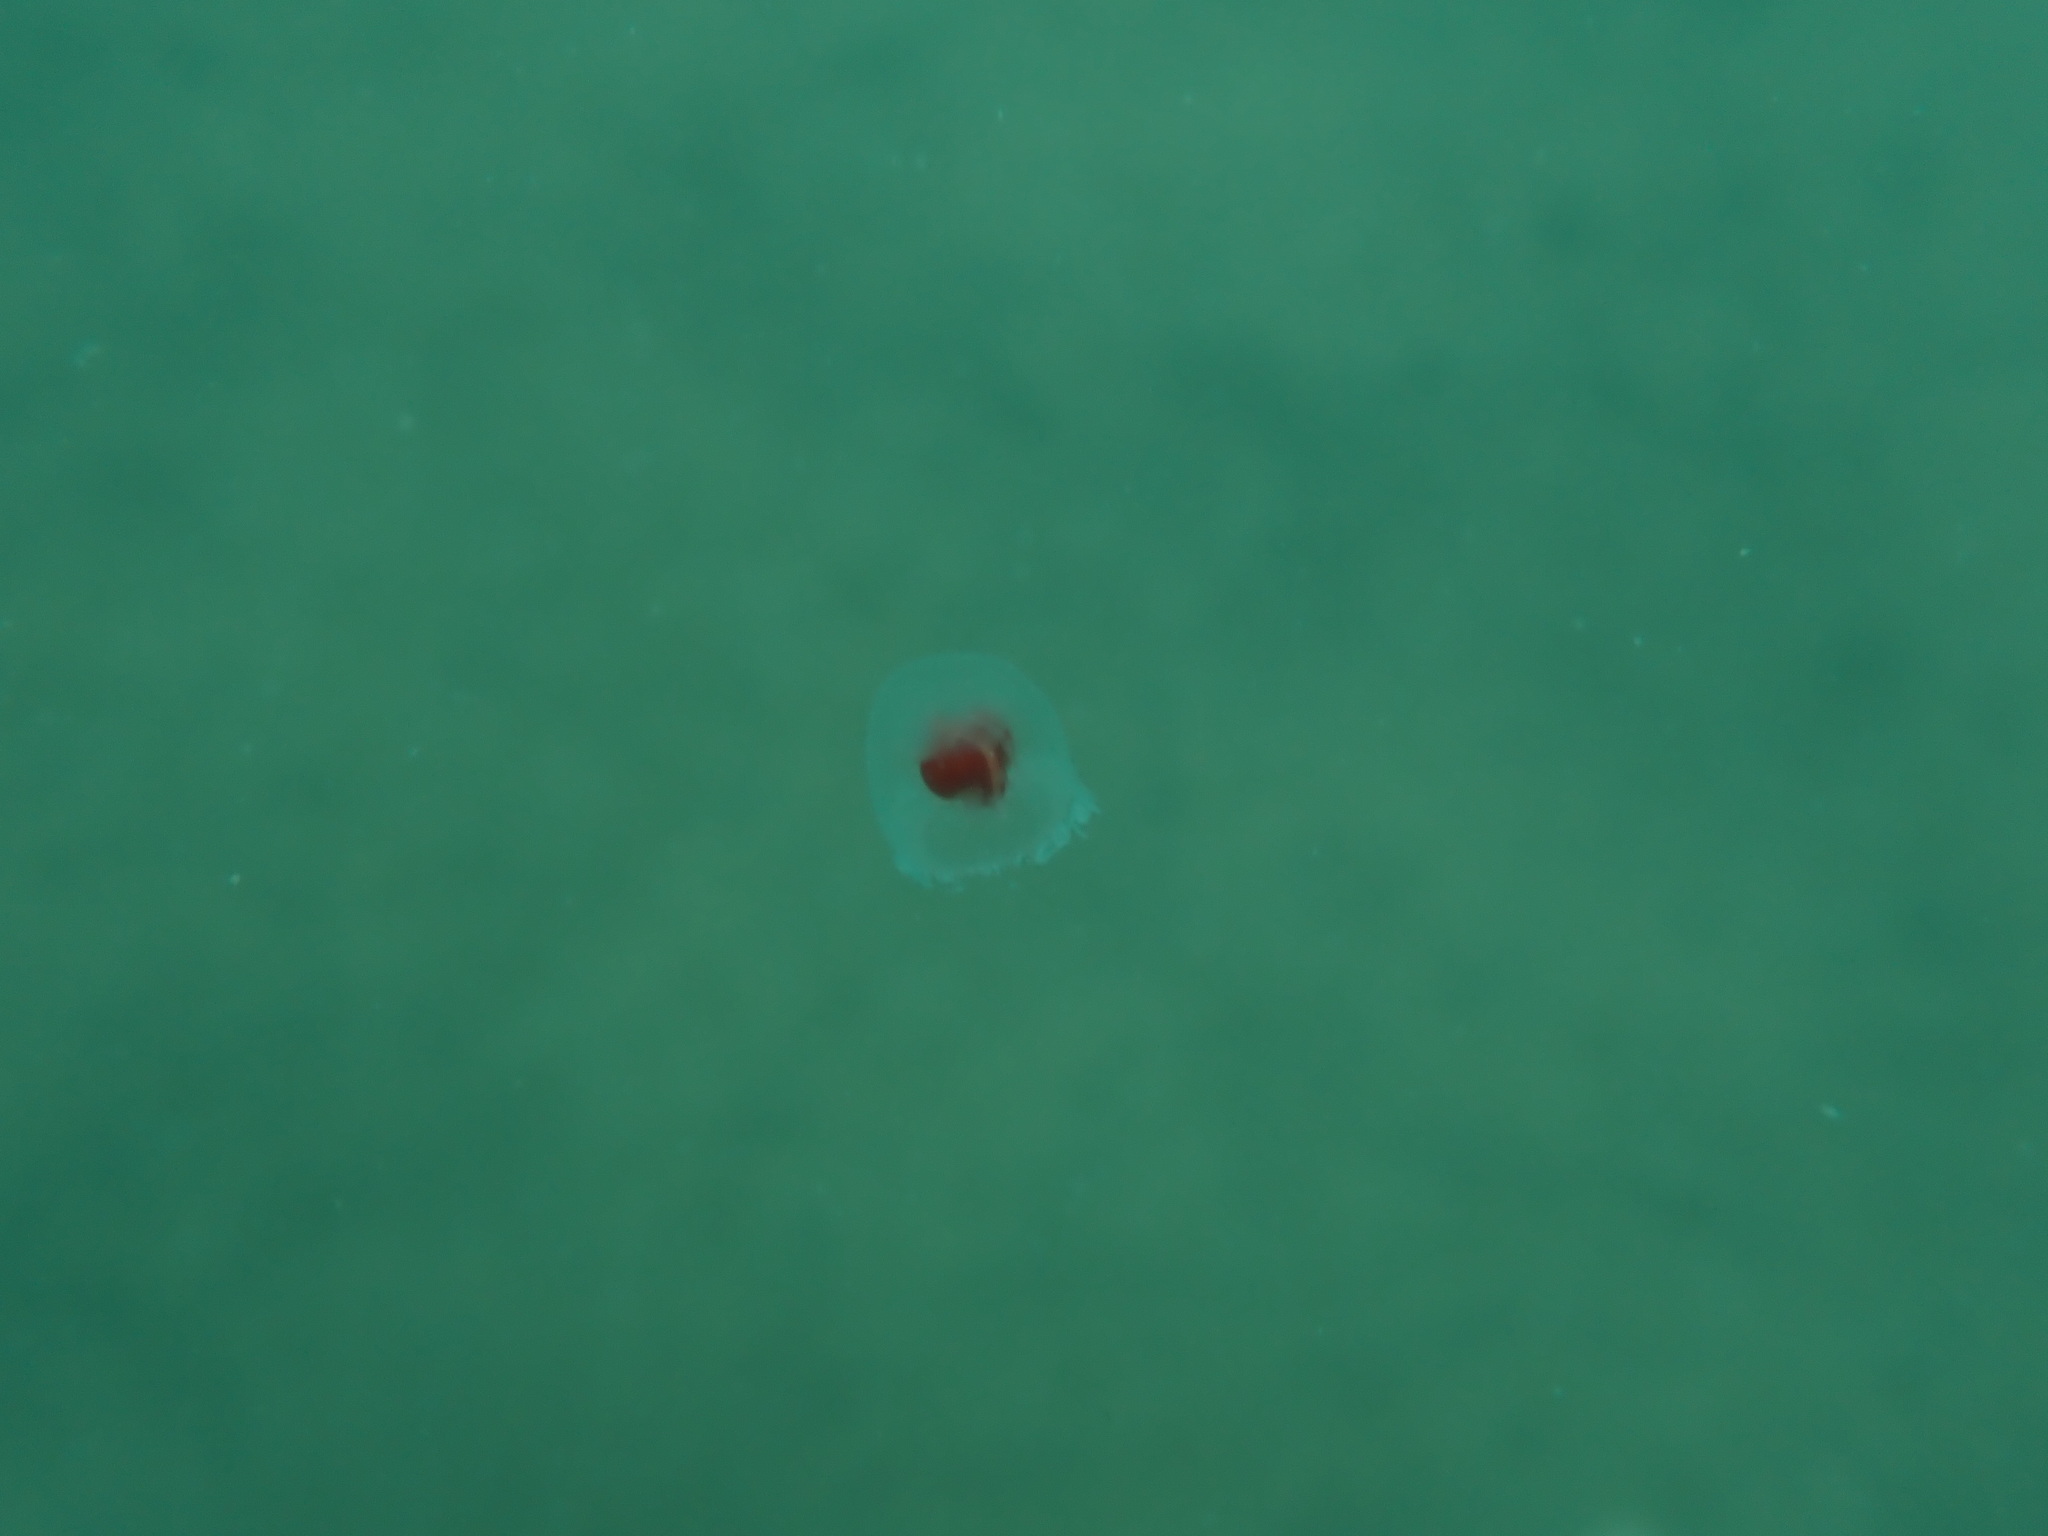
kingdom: Animalia
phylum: Cnidaria
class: Hydrozoa
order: Anthoathecata
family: Oceaniidae
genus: Turritopsis
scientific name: Turritopsis rubra
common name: Crimson jelly
